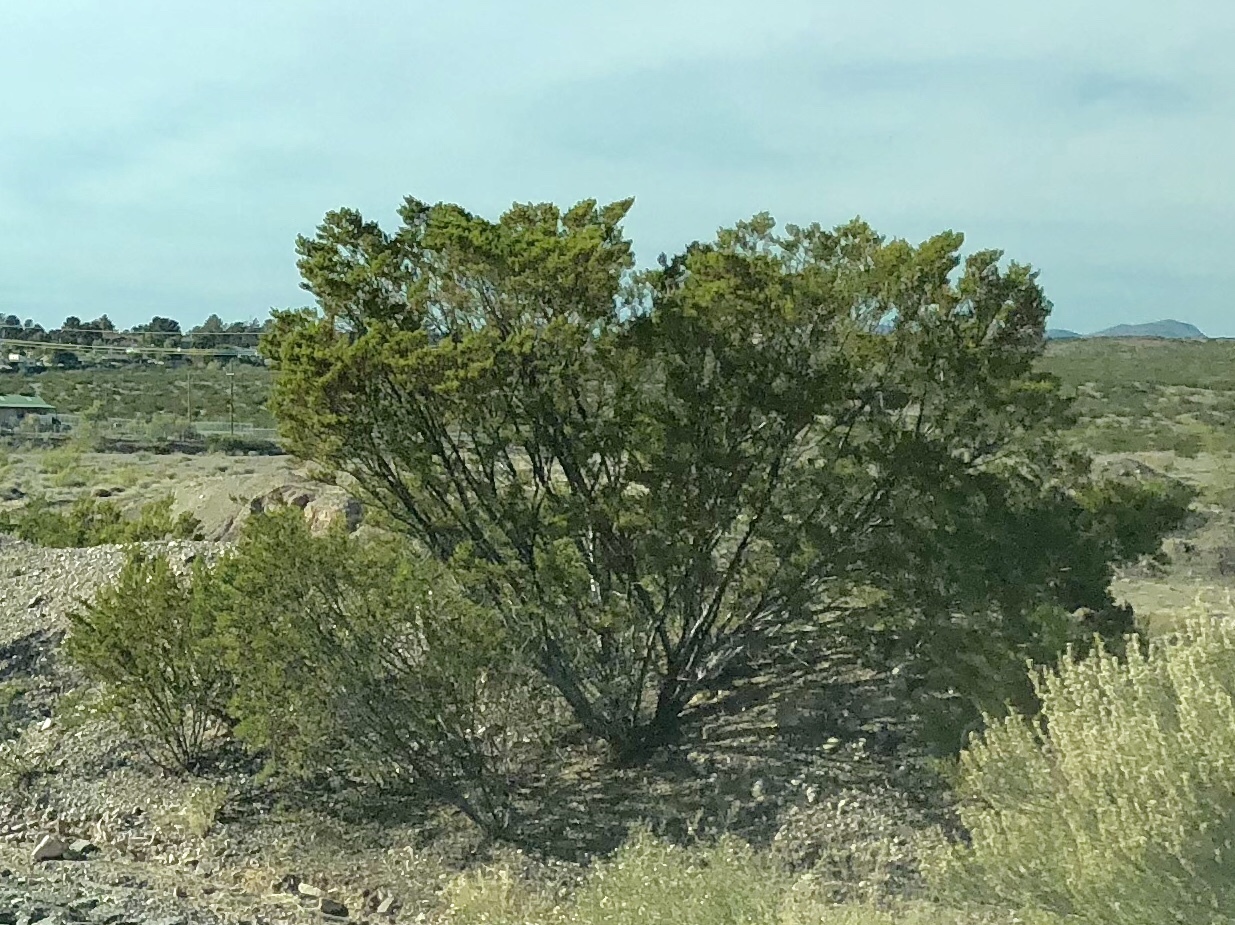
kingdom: Plantae
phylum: Tracheophyta
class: Magnoliopsida
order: Zygophyllales
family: Zygophyllaceae
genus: Larrea
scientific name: Larrea tridentata
